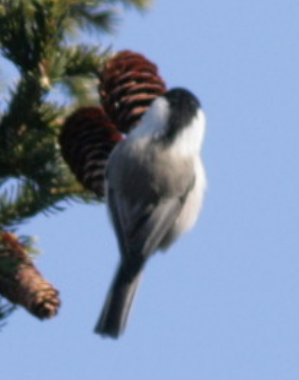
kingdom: Animalia
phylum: Chordata
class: Aves
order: Passeriformes
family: Paridae
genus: Poecile
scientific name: Poecile montanus
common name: Willow tit
